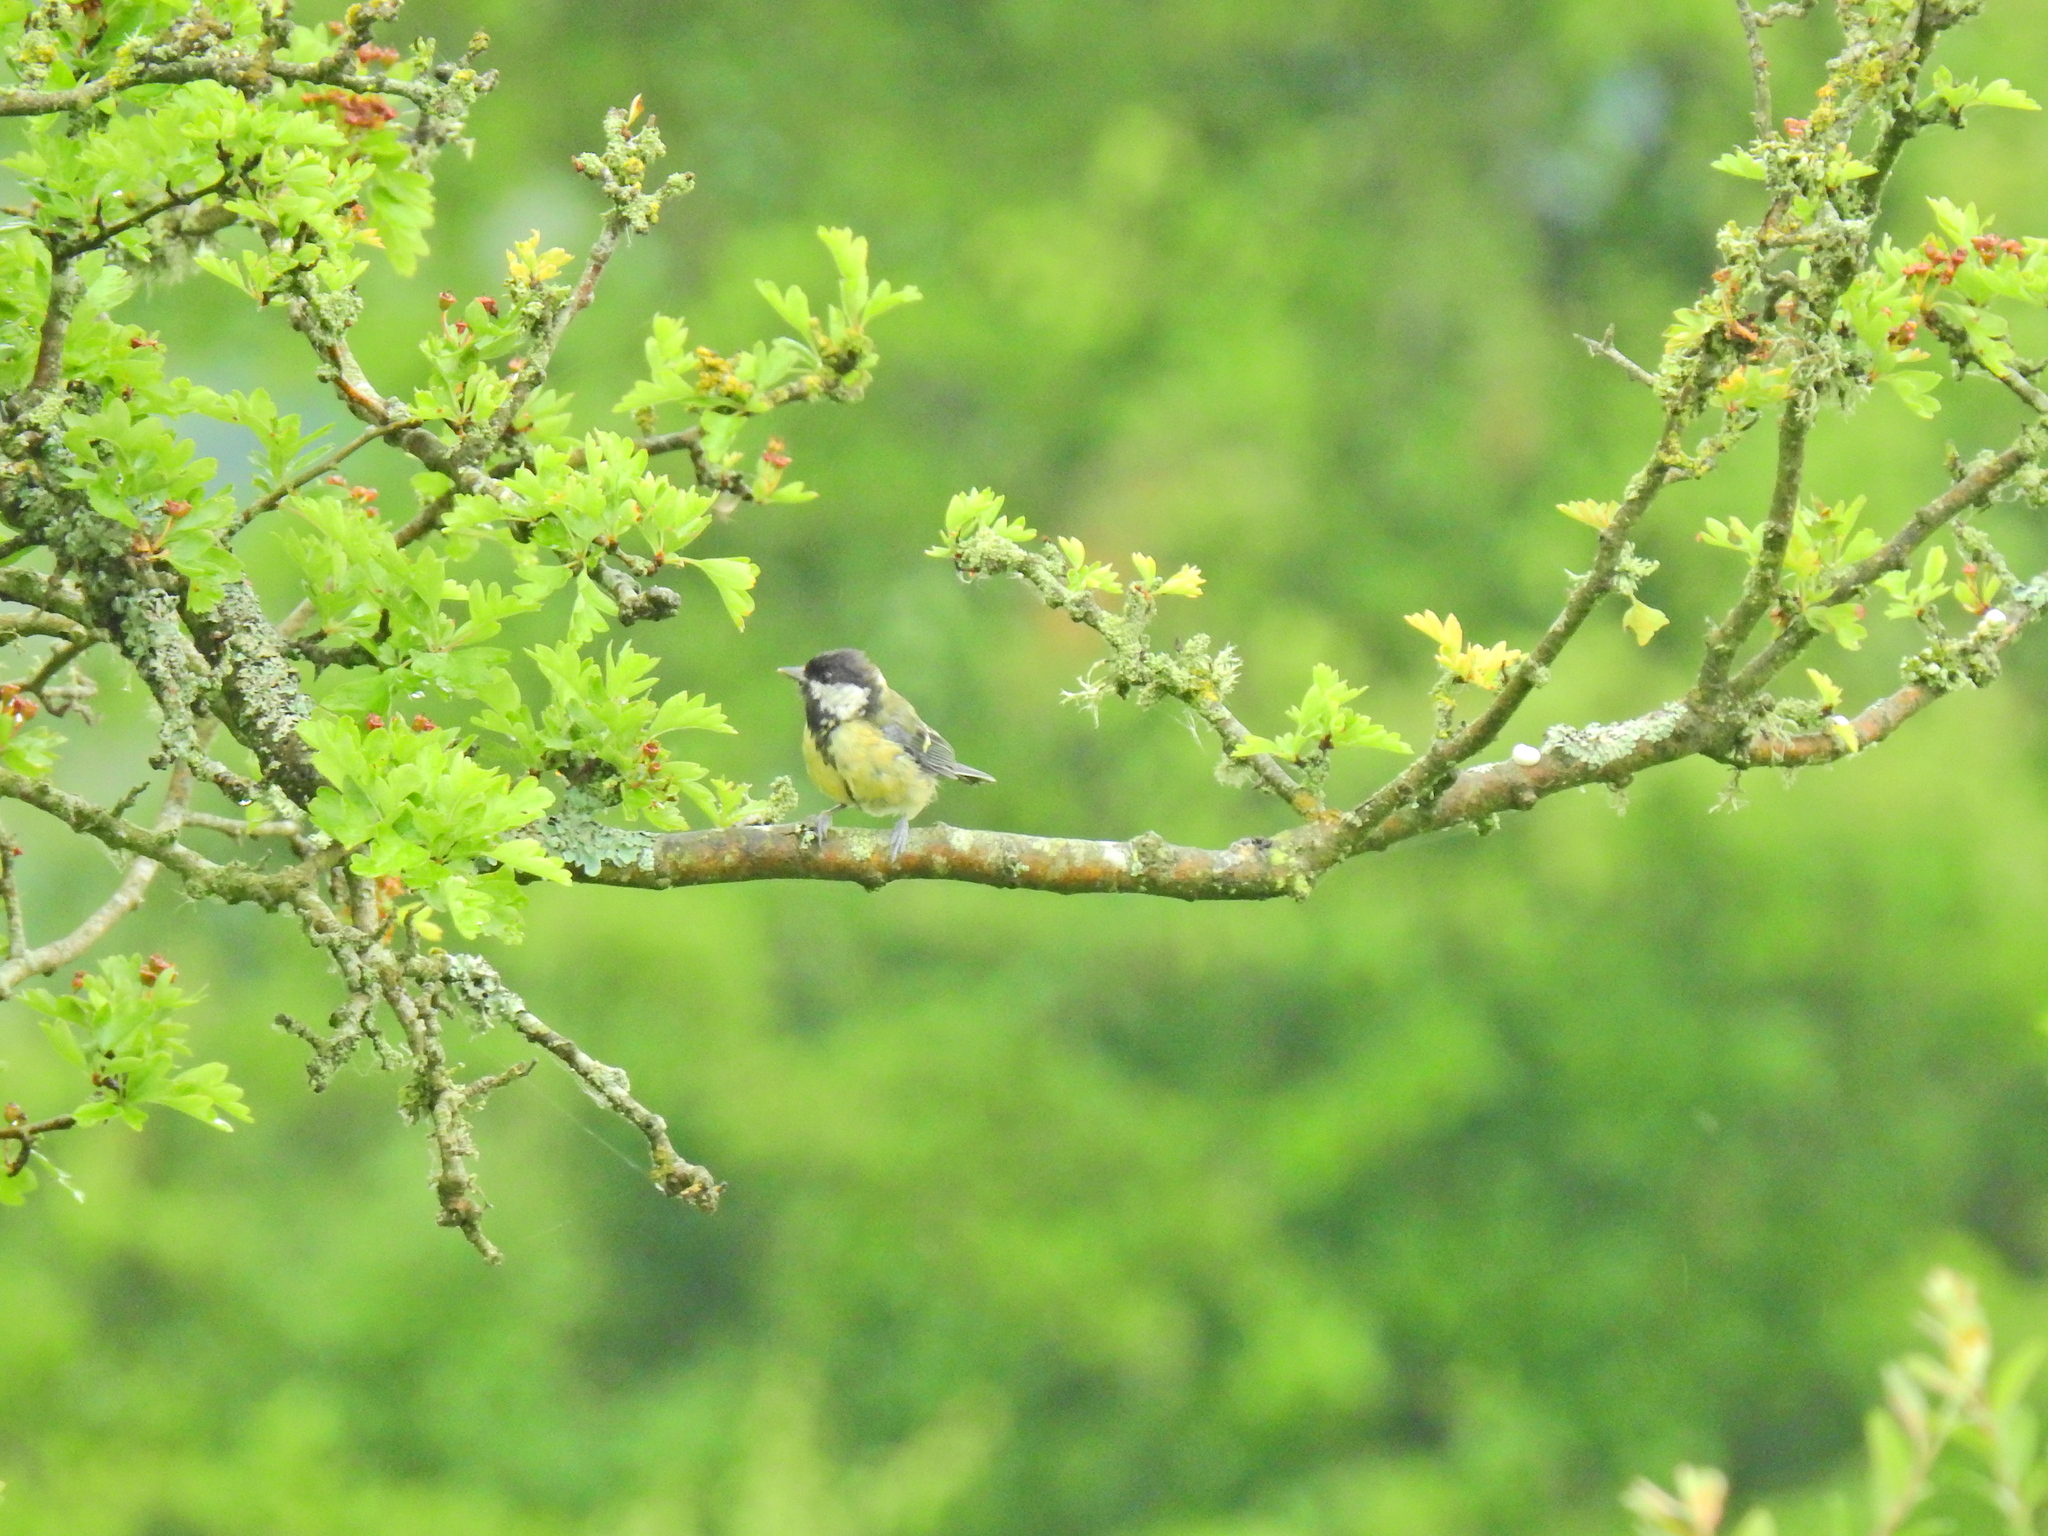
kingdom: Animalia
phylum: Chordata
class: Aves
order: Passeriformes
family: Paridae
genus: Parus
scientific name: Parus major
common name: Great tit
